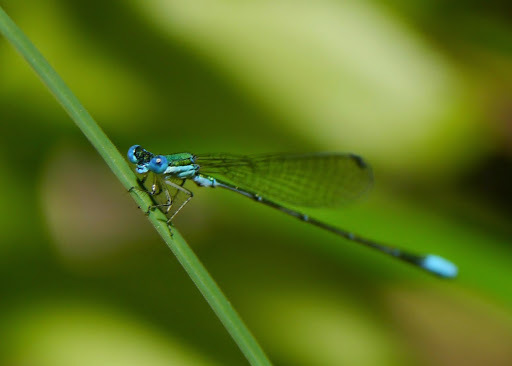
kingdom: Animalia
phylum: Arthropoda
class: Insecta
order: Odonata
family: Coenagrionidae
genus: Nehalennia
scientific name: Nehalennia gracilis
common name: Sphagnum sprite
